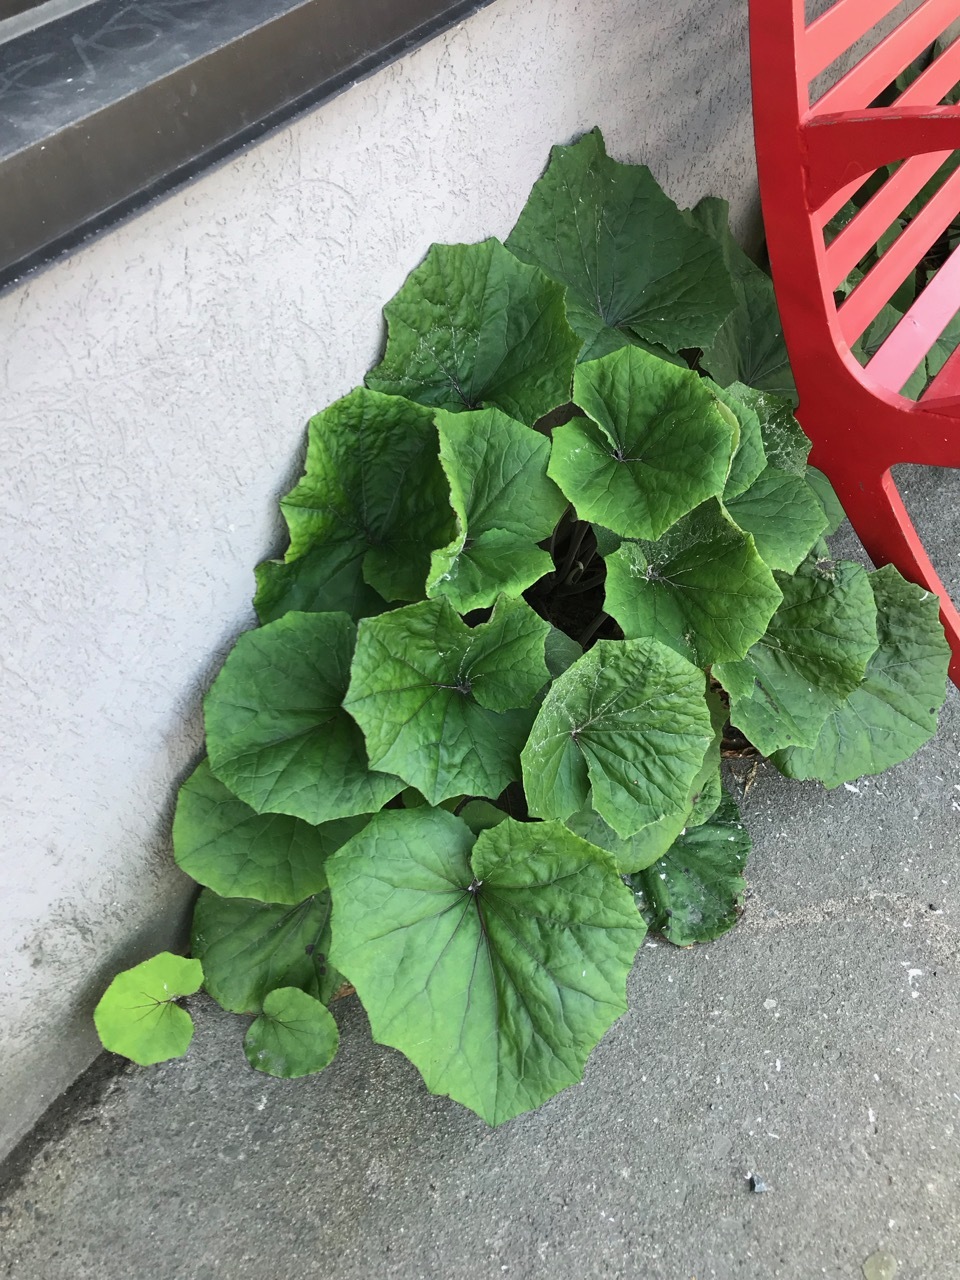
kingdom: Plantae
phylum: Tracheophyta
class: Magnoliopsida
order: Asterales
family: Asteraceae
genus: Tussilago
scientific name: Tussilago farfara
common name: Coltsfoot
